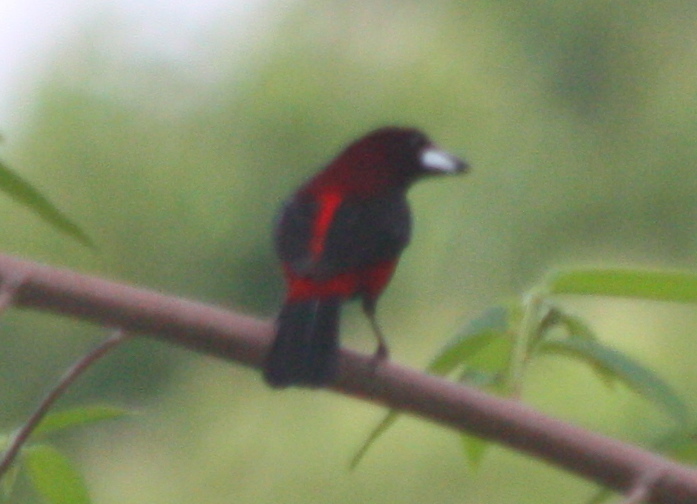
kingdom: Animalia
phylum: Chordata
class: Aves
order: Passeriformes
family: Thraupidae
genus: Ramphocelus
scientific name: Ramphocelus dimidiatus
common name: Crimson-backed tanager
